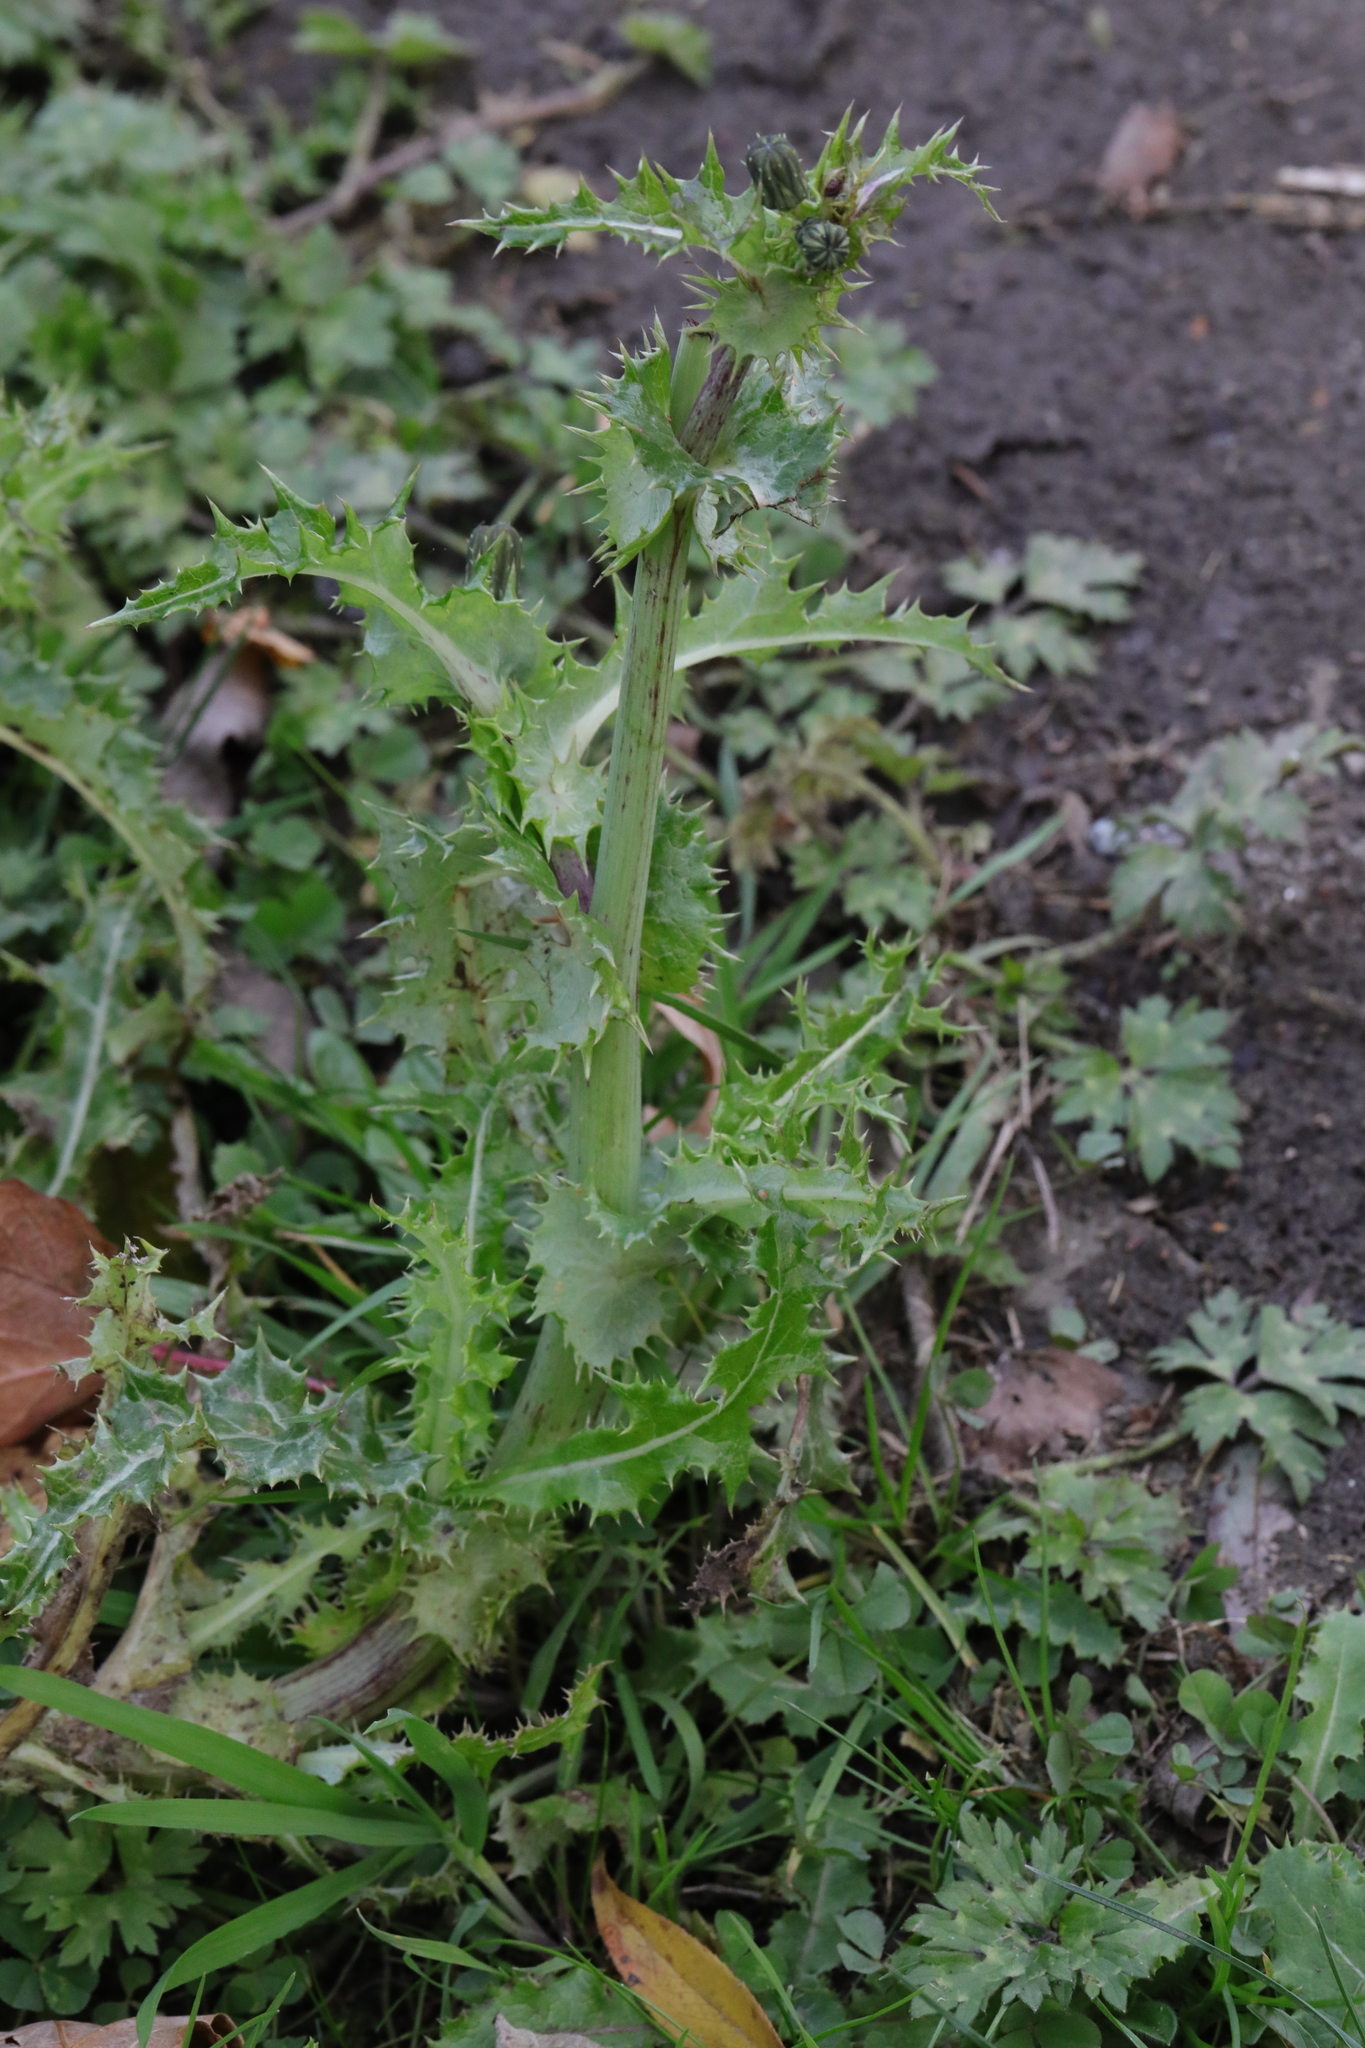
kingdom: Plantae
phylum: Tracheophyta
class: Magnoliopsida
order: Asterales
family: Asteraceae
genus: Sonchus
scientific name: Sonchus asper
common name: Prickly sow-thistle
